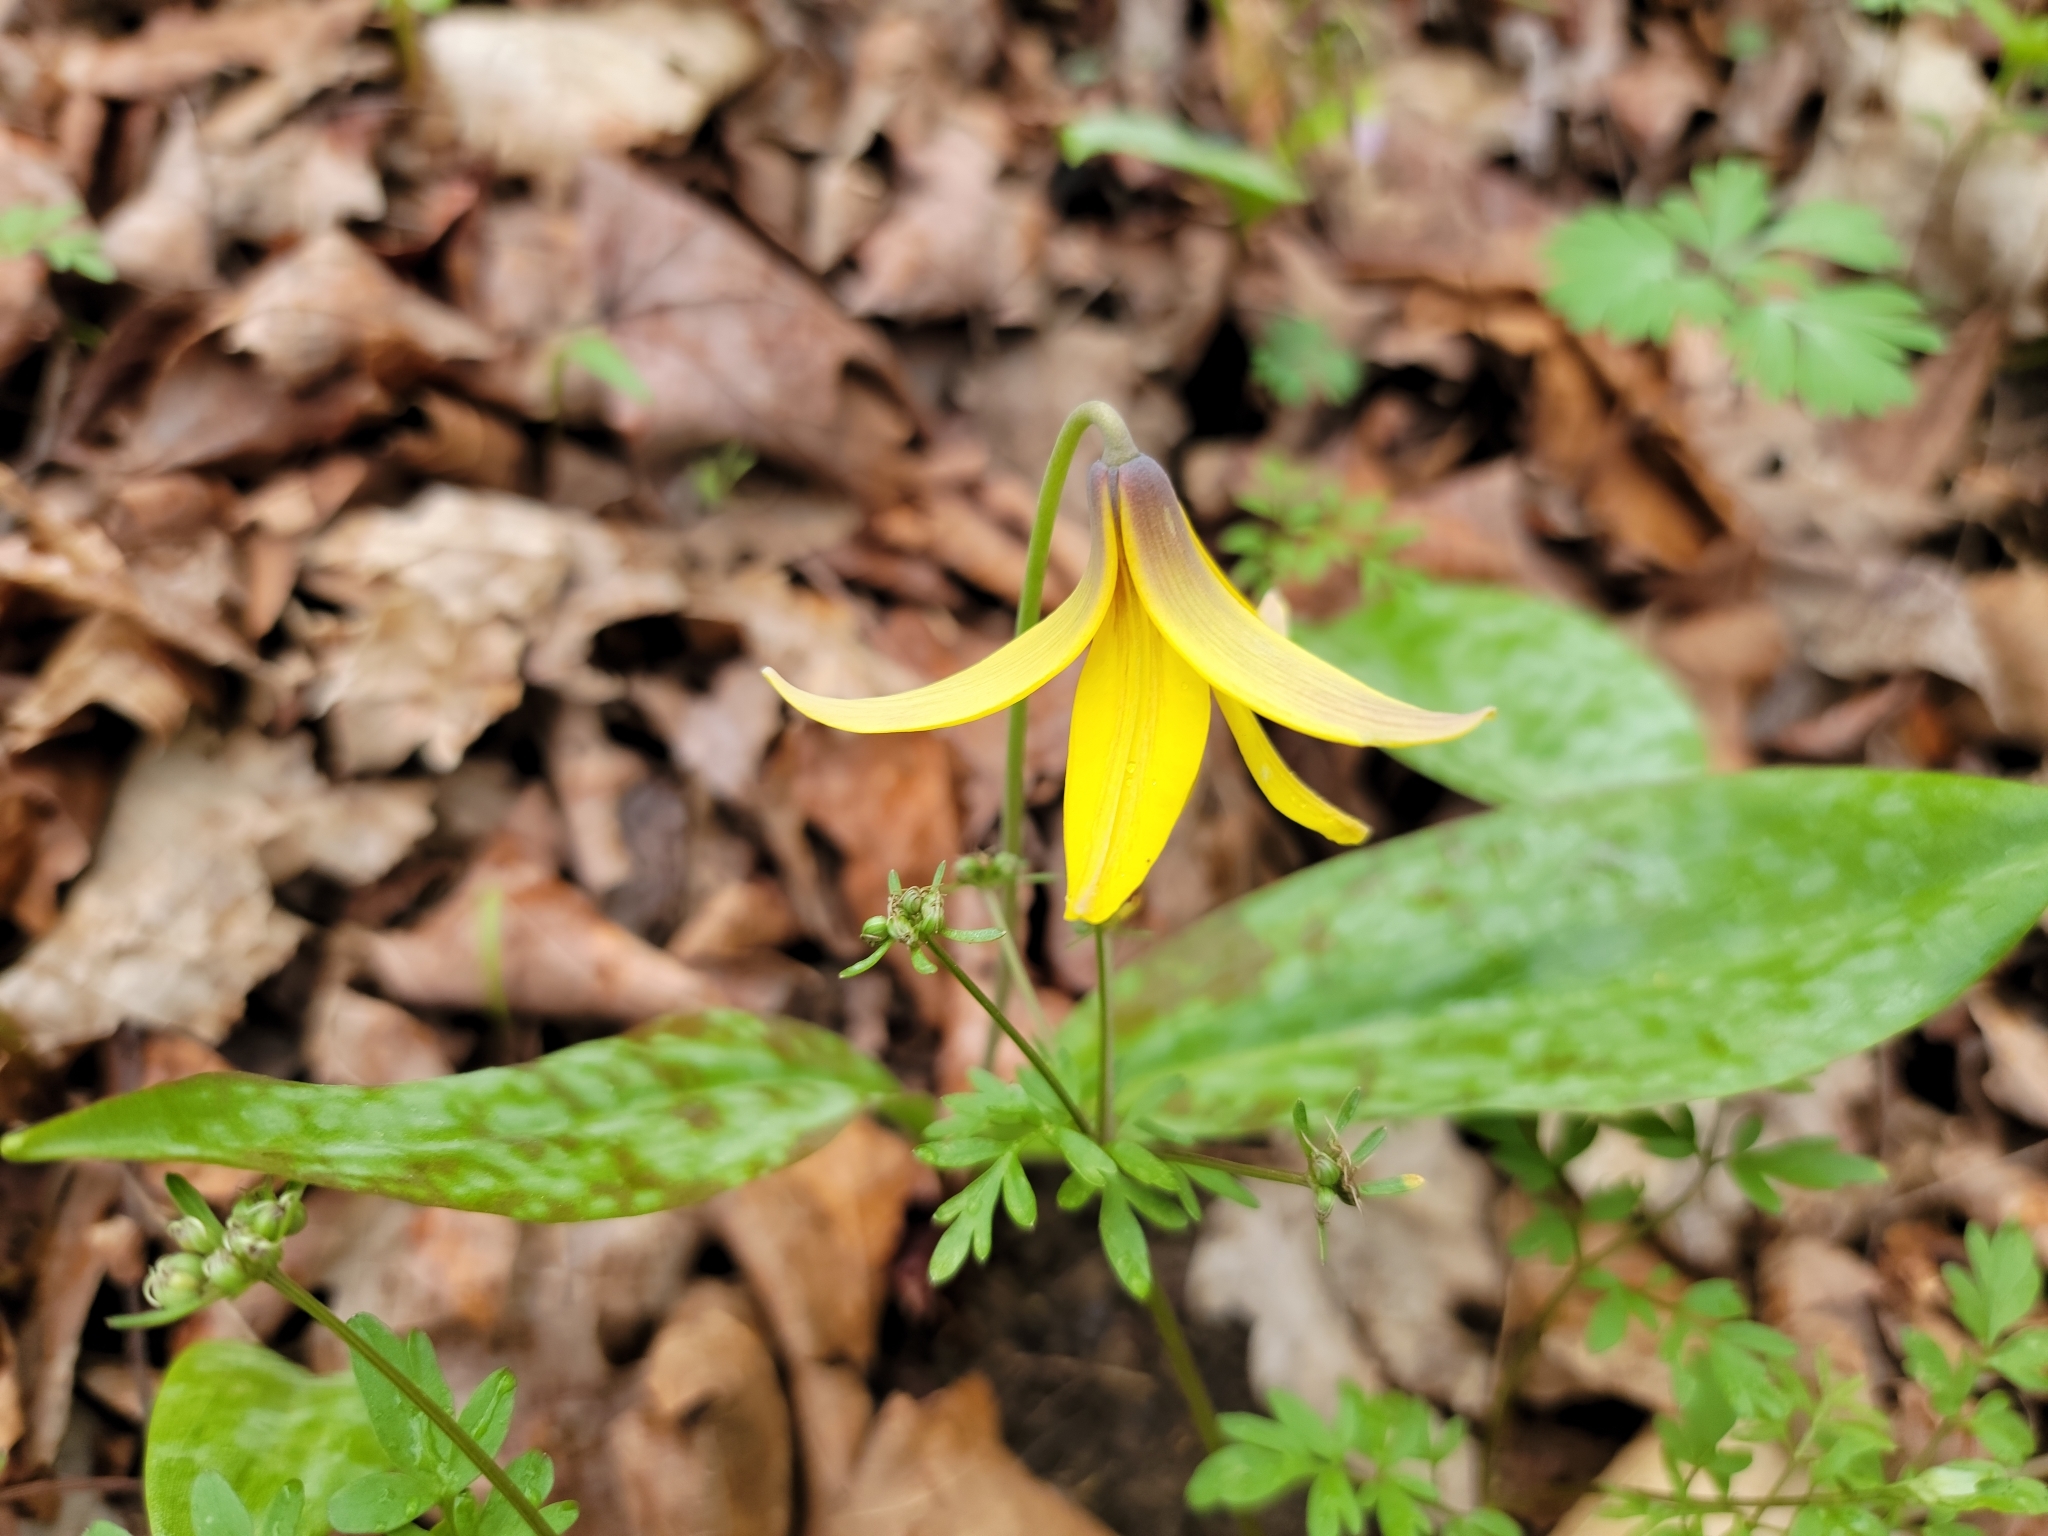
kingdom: Plantae
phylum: Tracheophyta
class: Liliopsida
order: Liliales
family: Liliaceae
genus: Erythronium
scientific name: Erythronium americanum
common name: Yellow adder's-tongue
